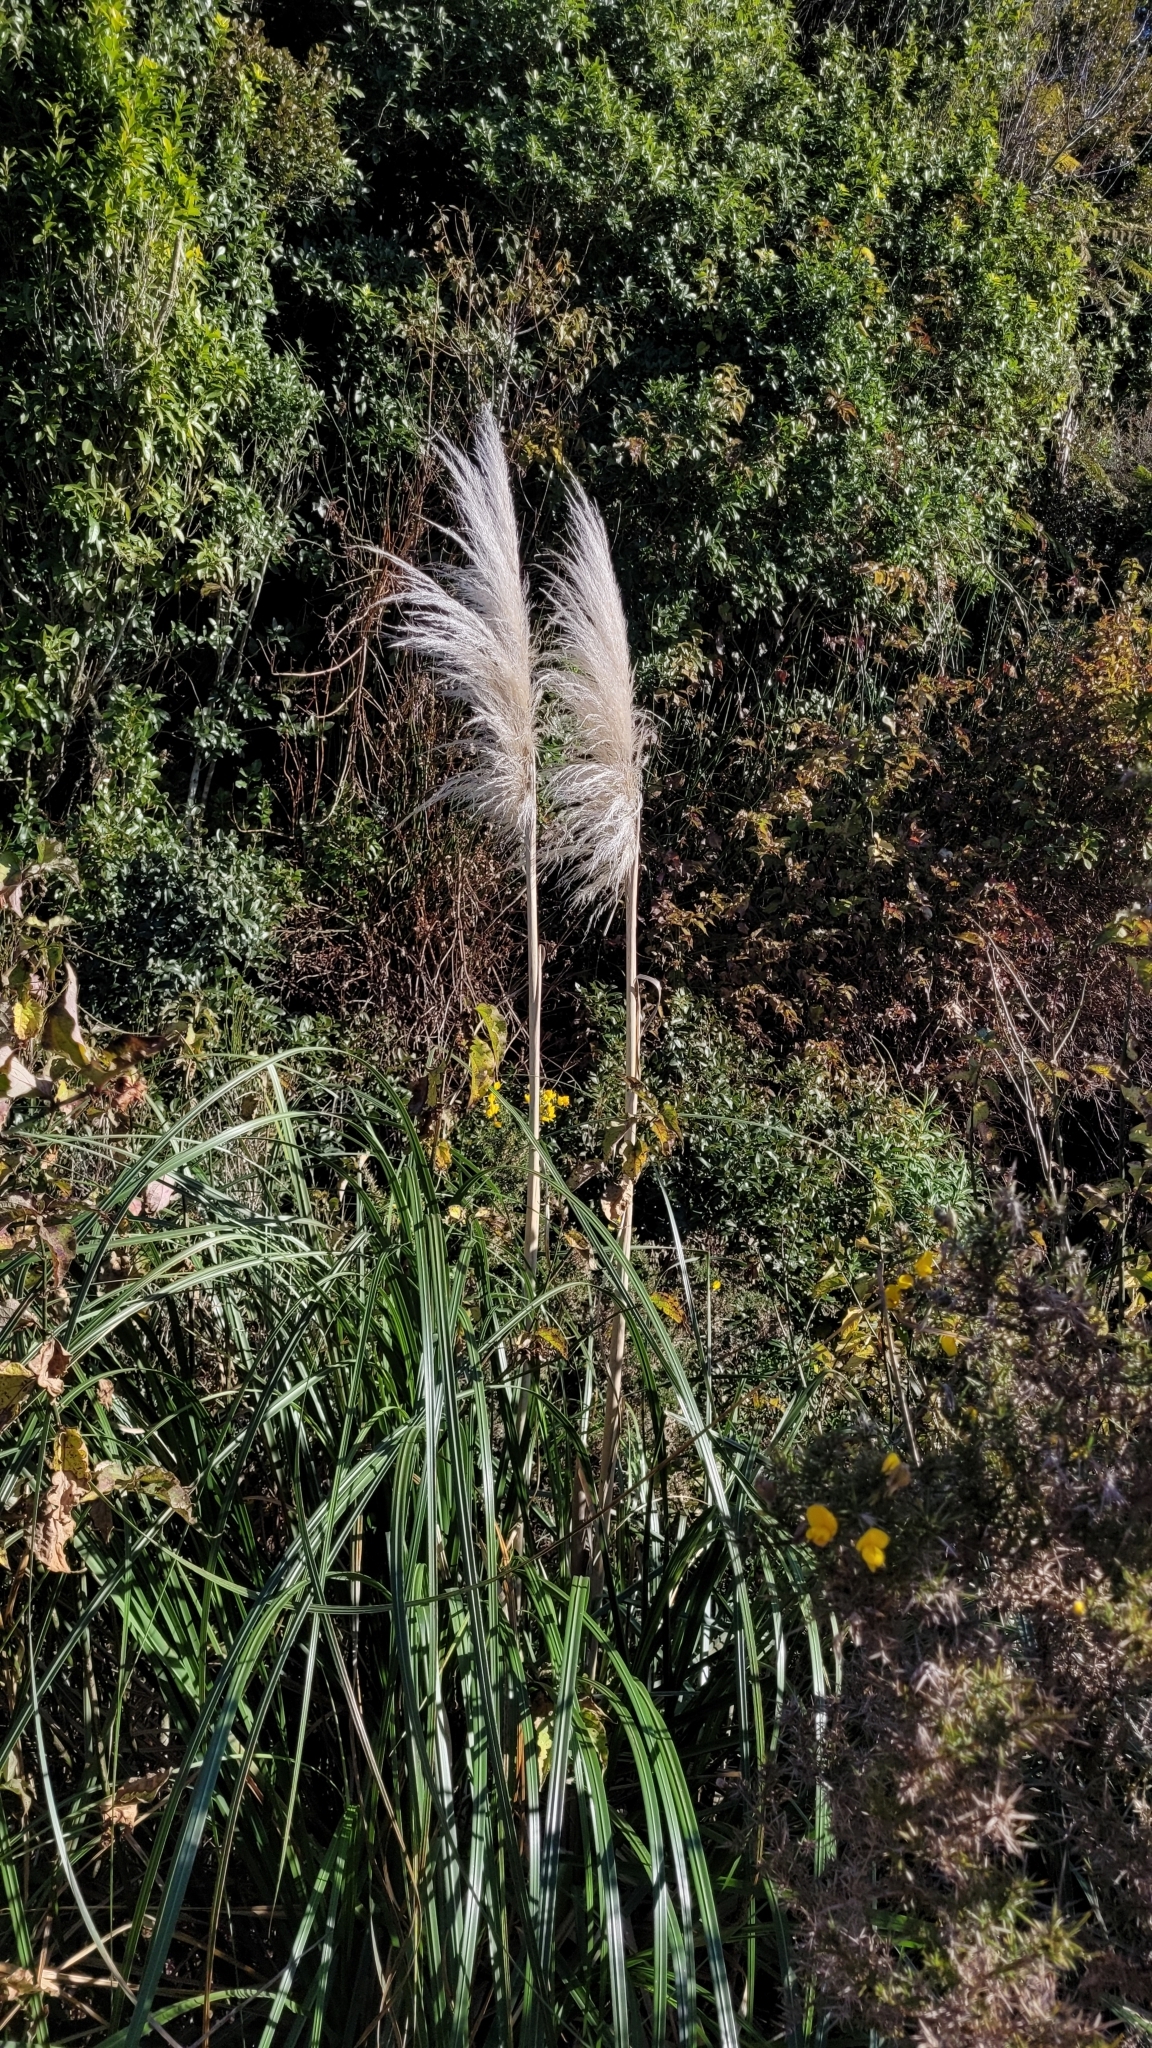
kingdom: Plantae
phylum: Tracheophyta
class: Liliopsida
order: Poales
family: Poaceae
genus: Cortaderia
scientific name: Cortaderia jubata
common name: Purple pampas grass
